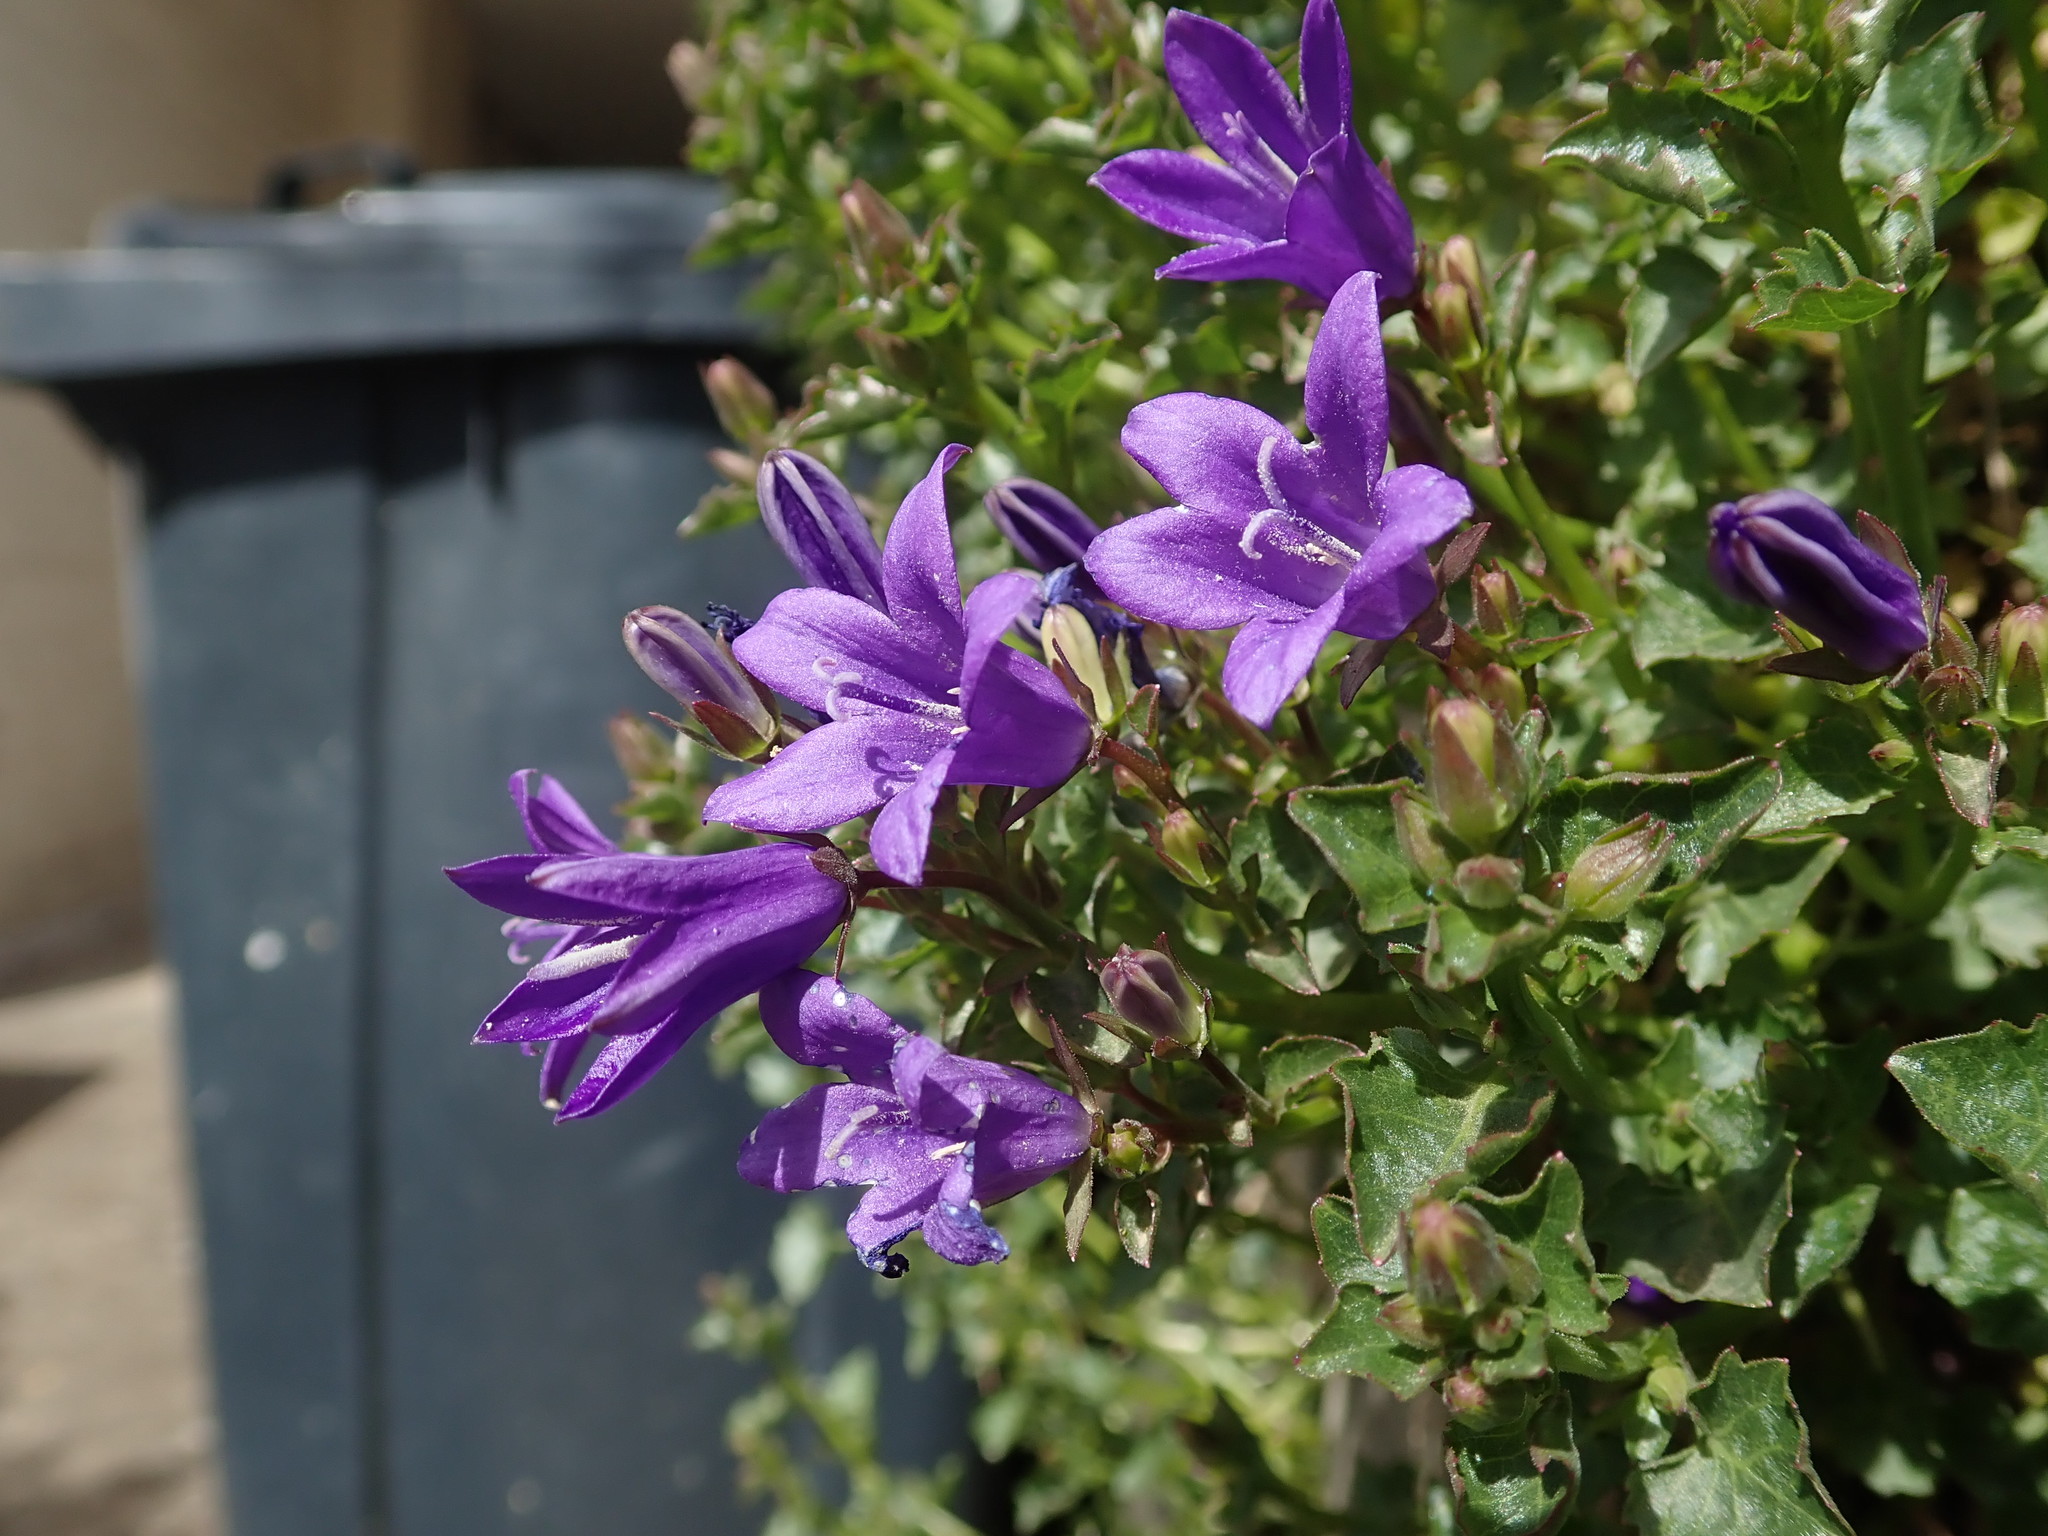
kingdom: Plantae
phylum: Tracheophyta
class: Magnoliopsida
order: Asterales
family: Campanulaceae
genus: Campanula
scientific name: Campanula portenschlagiana
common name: Adria bellflower
